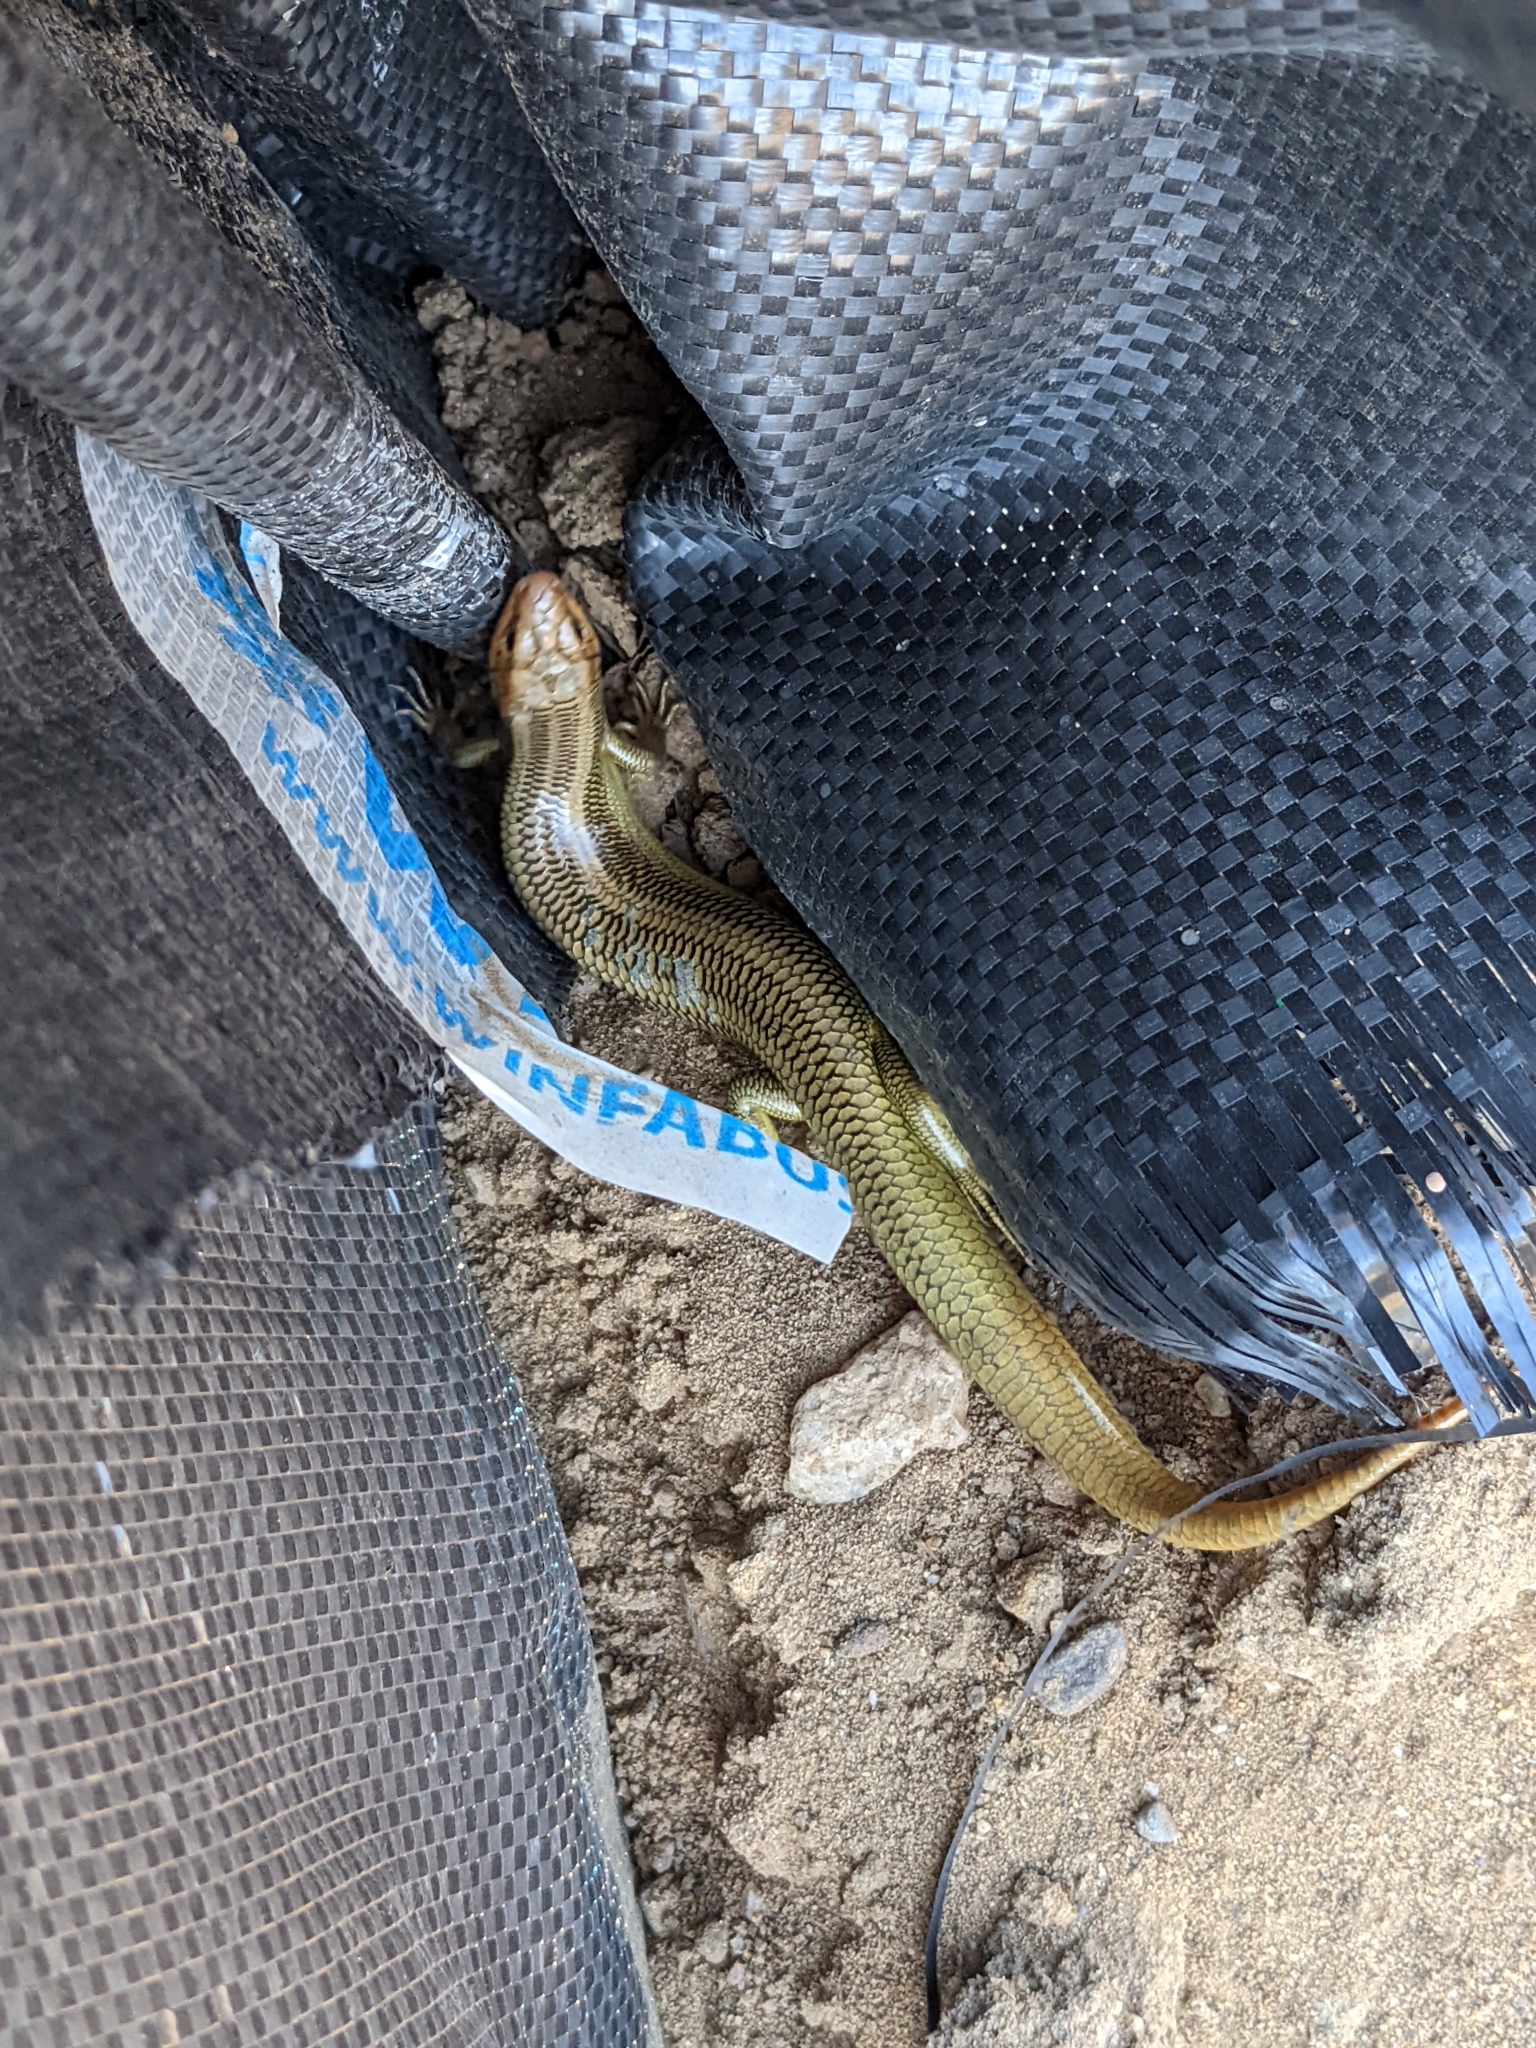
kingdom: Animalia
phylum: Chordata
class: Squamata
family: Scincidae
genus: Plestiodon
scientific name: Plestiodon gilberti
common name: Gilbert's skink
